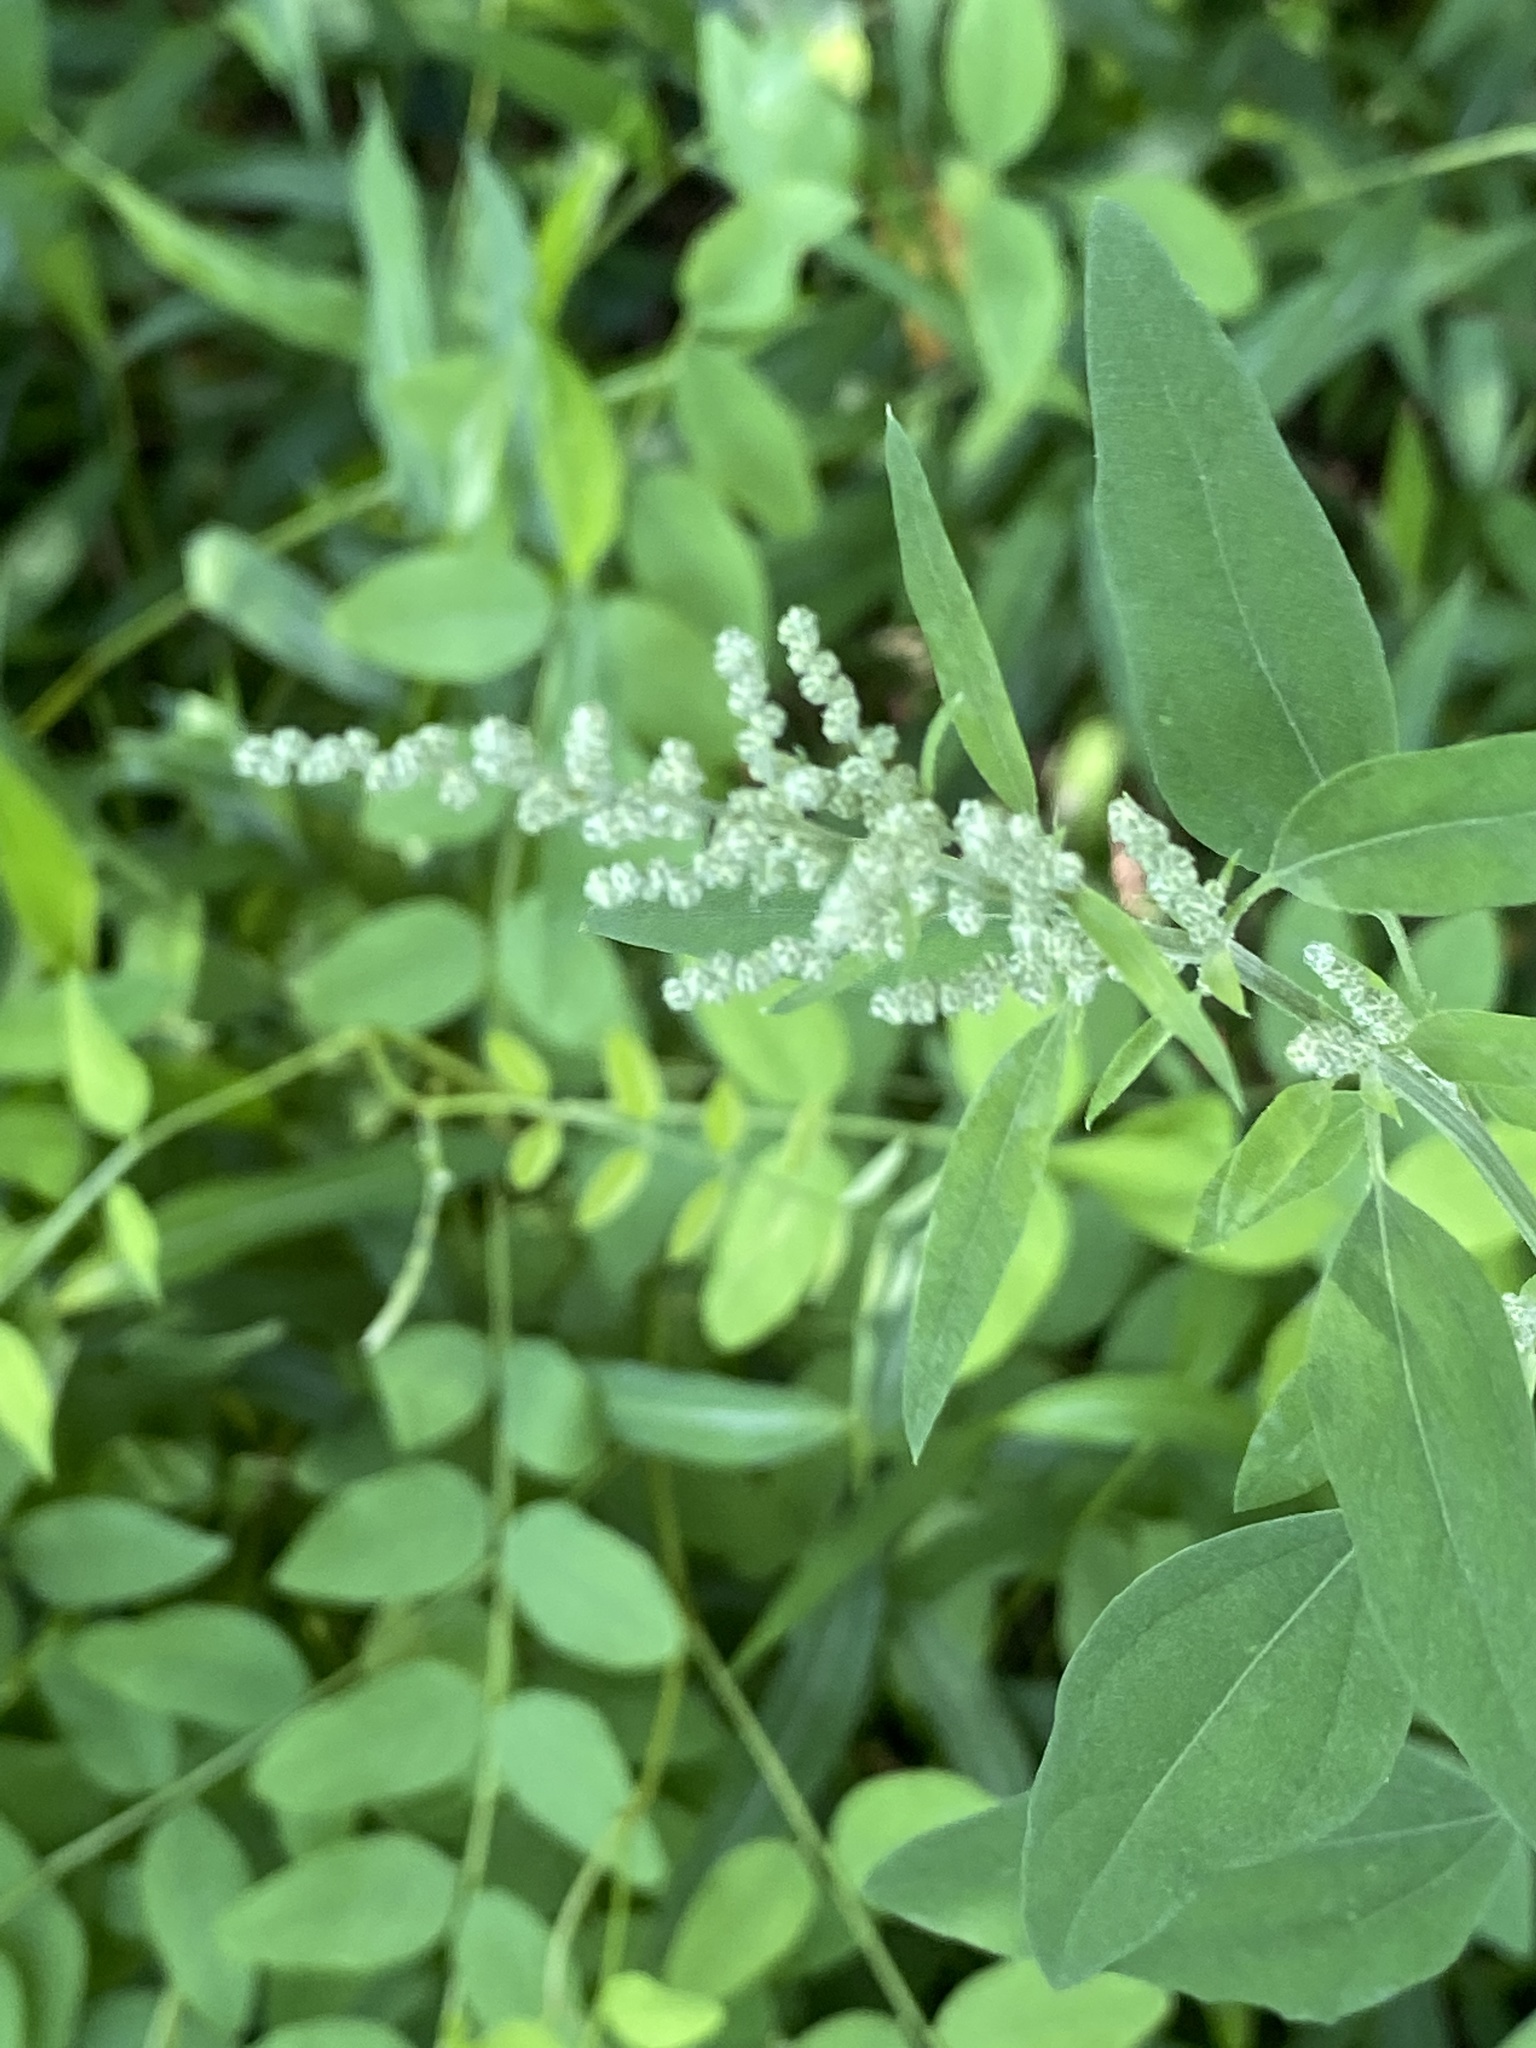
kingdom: Plantae
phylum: Tracheophyta
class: Magnoliopsida
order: Caryophyllales
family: Amaranthaceae
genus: Chenopodium
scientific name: Chenopodium album
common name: Fat-hen
